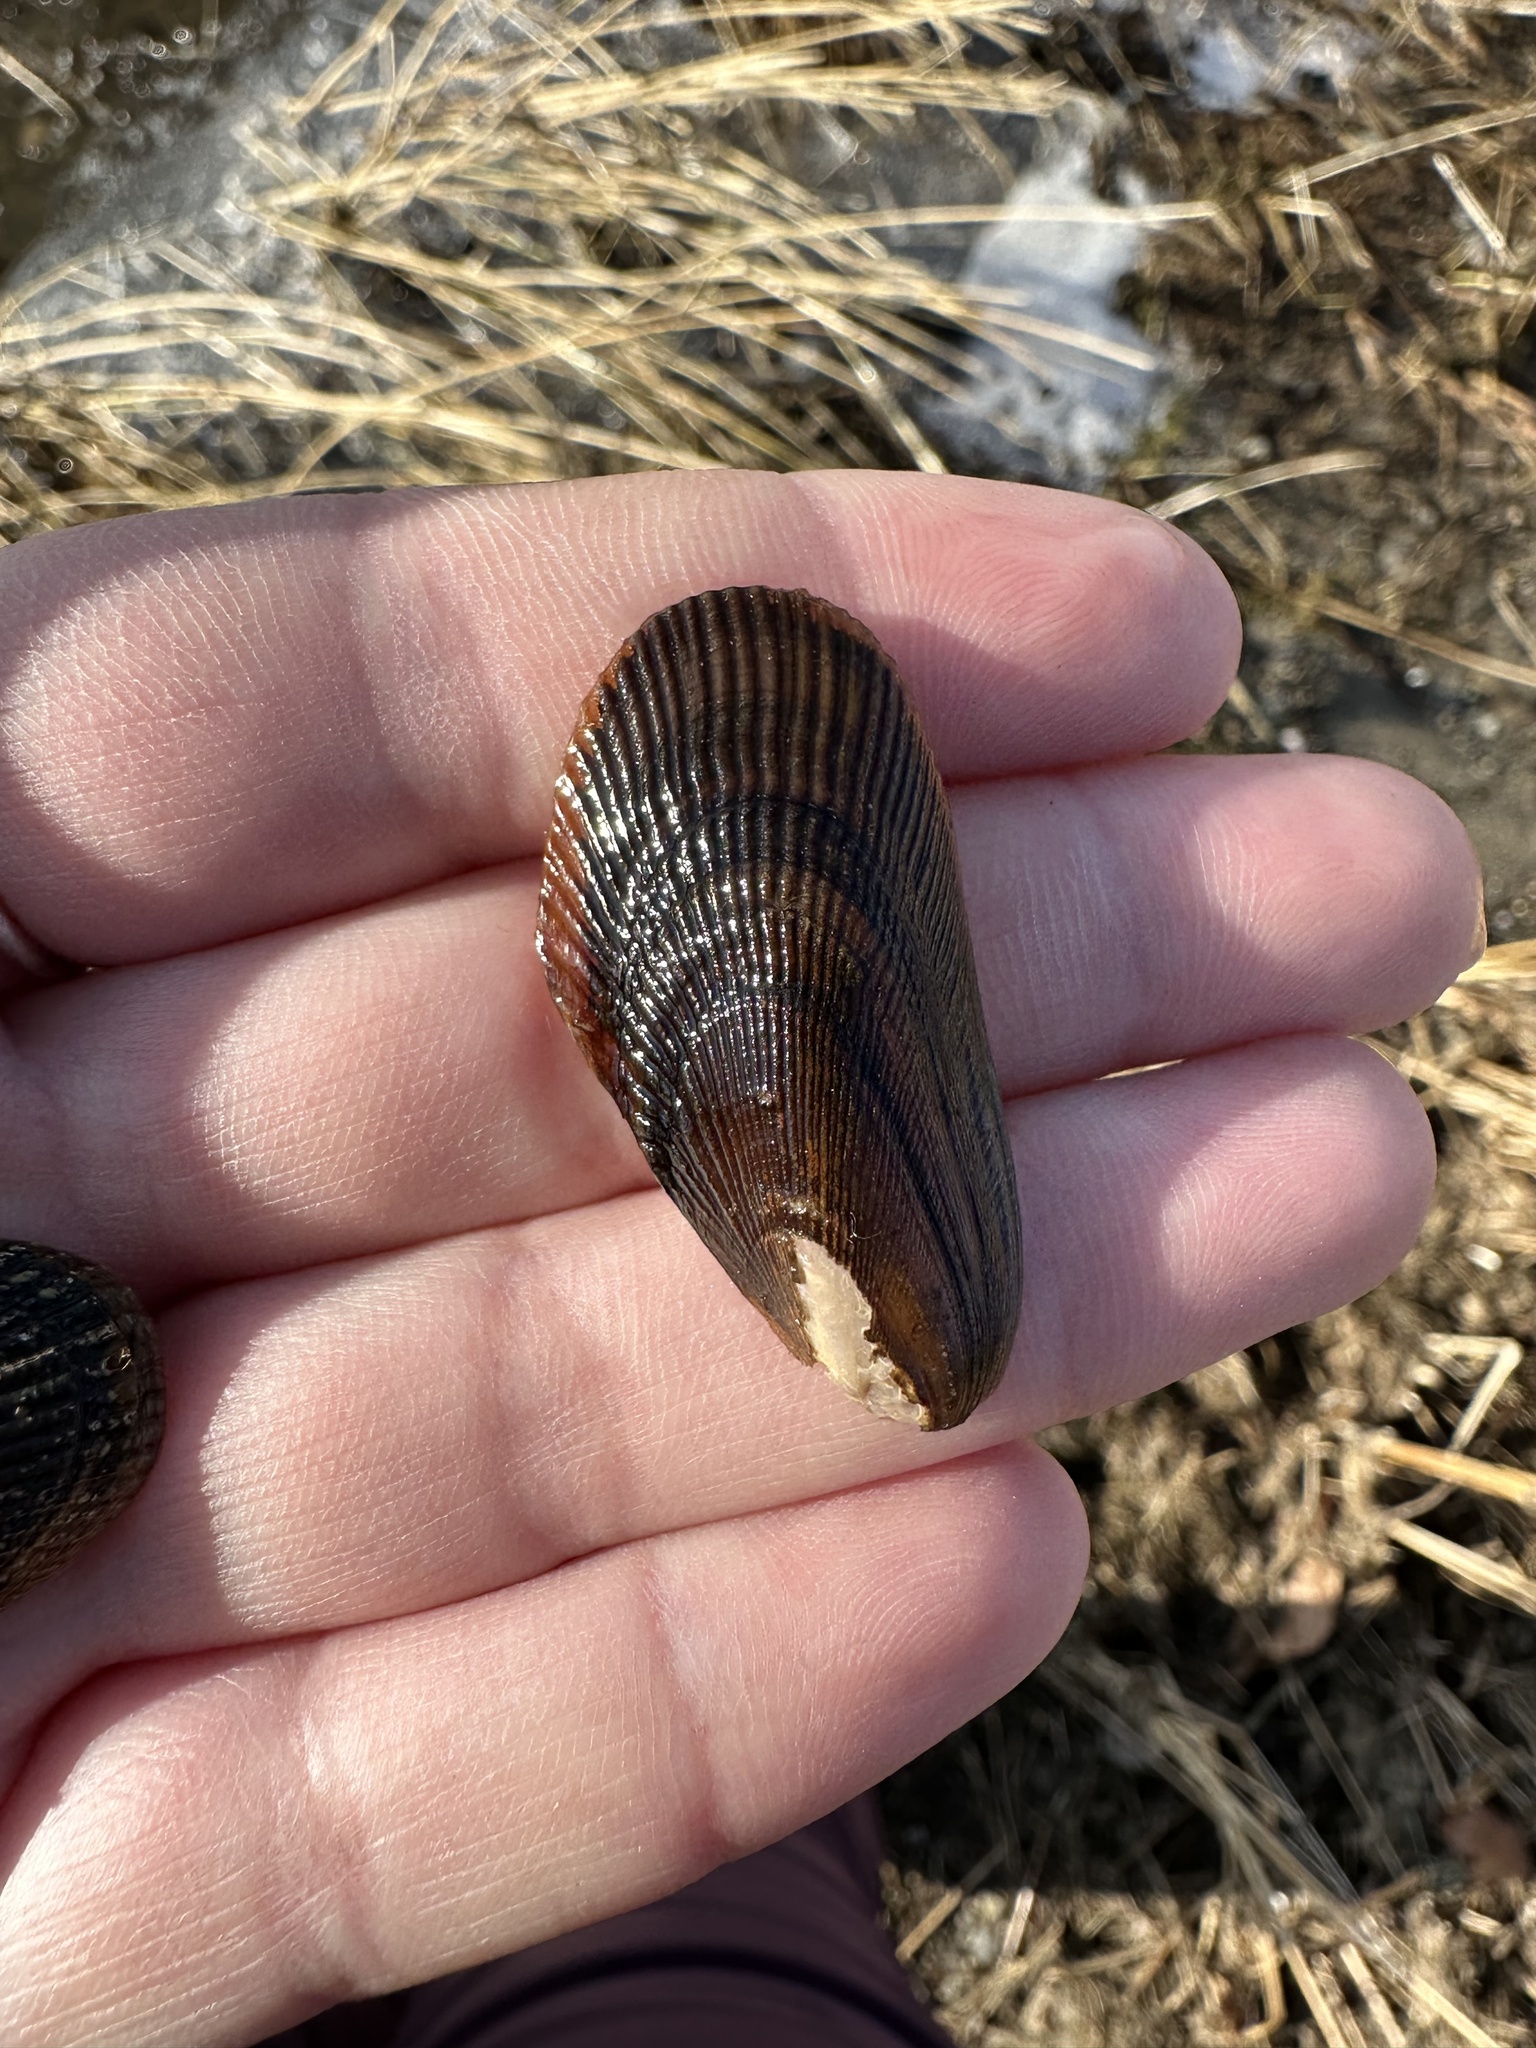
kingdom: Animalia
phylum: Mollusca
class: Bivalvia
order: Mytilida
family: Mytilidae
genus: Geukensia
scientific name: Geukensia demissa
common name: Ribbed mussel
